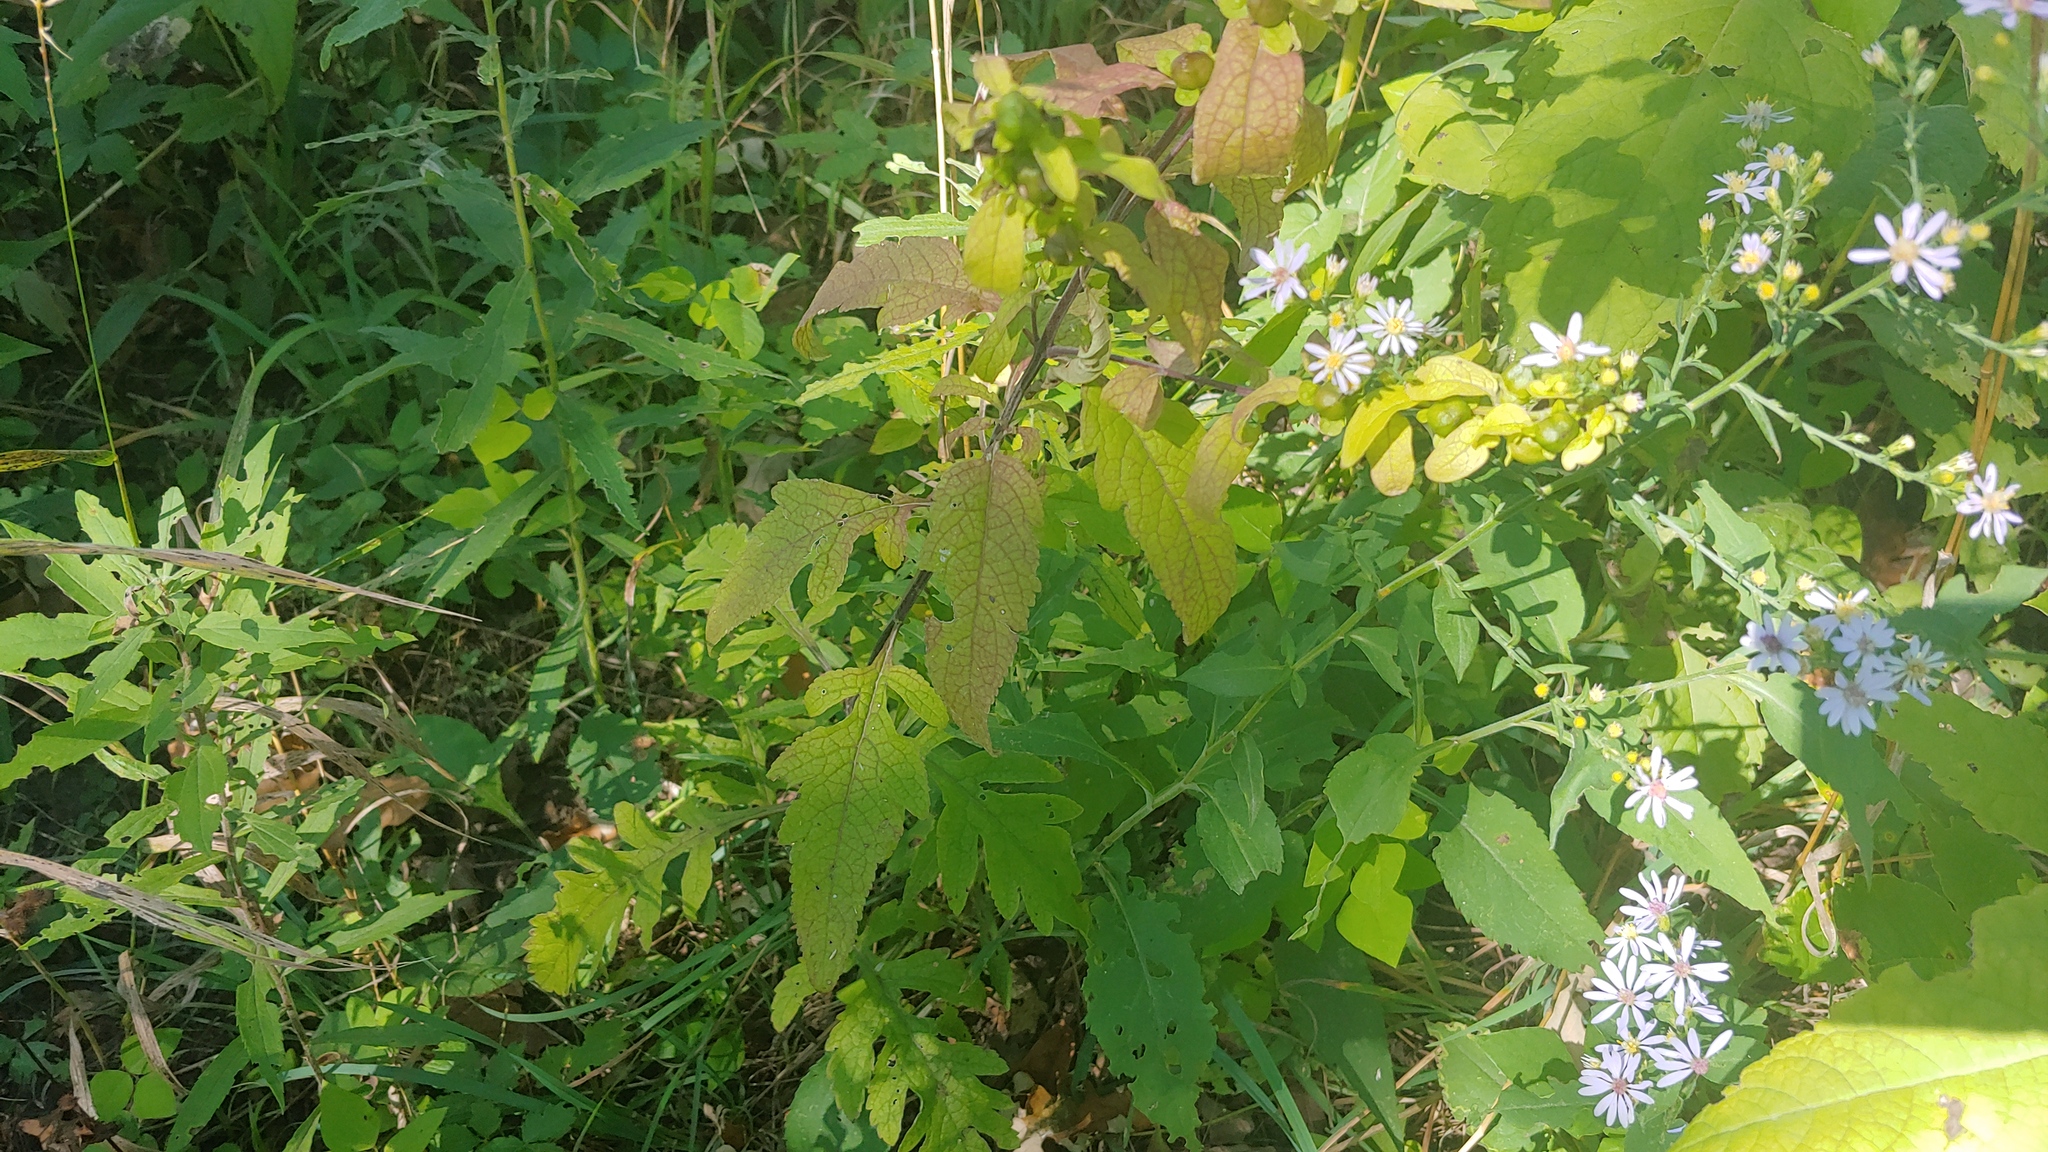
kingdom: Plantae
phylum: Tracheophyta
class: Magnoliopsida
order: Lamiales
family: Orobanchaceae
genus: Dasistoma
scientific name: Dasistoma macrophyllum
